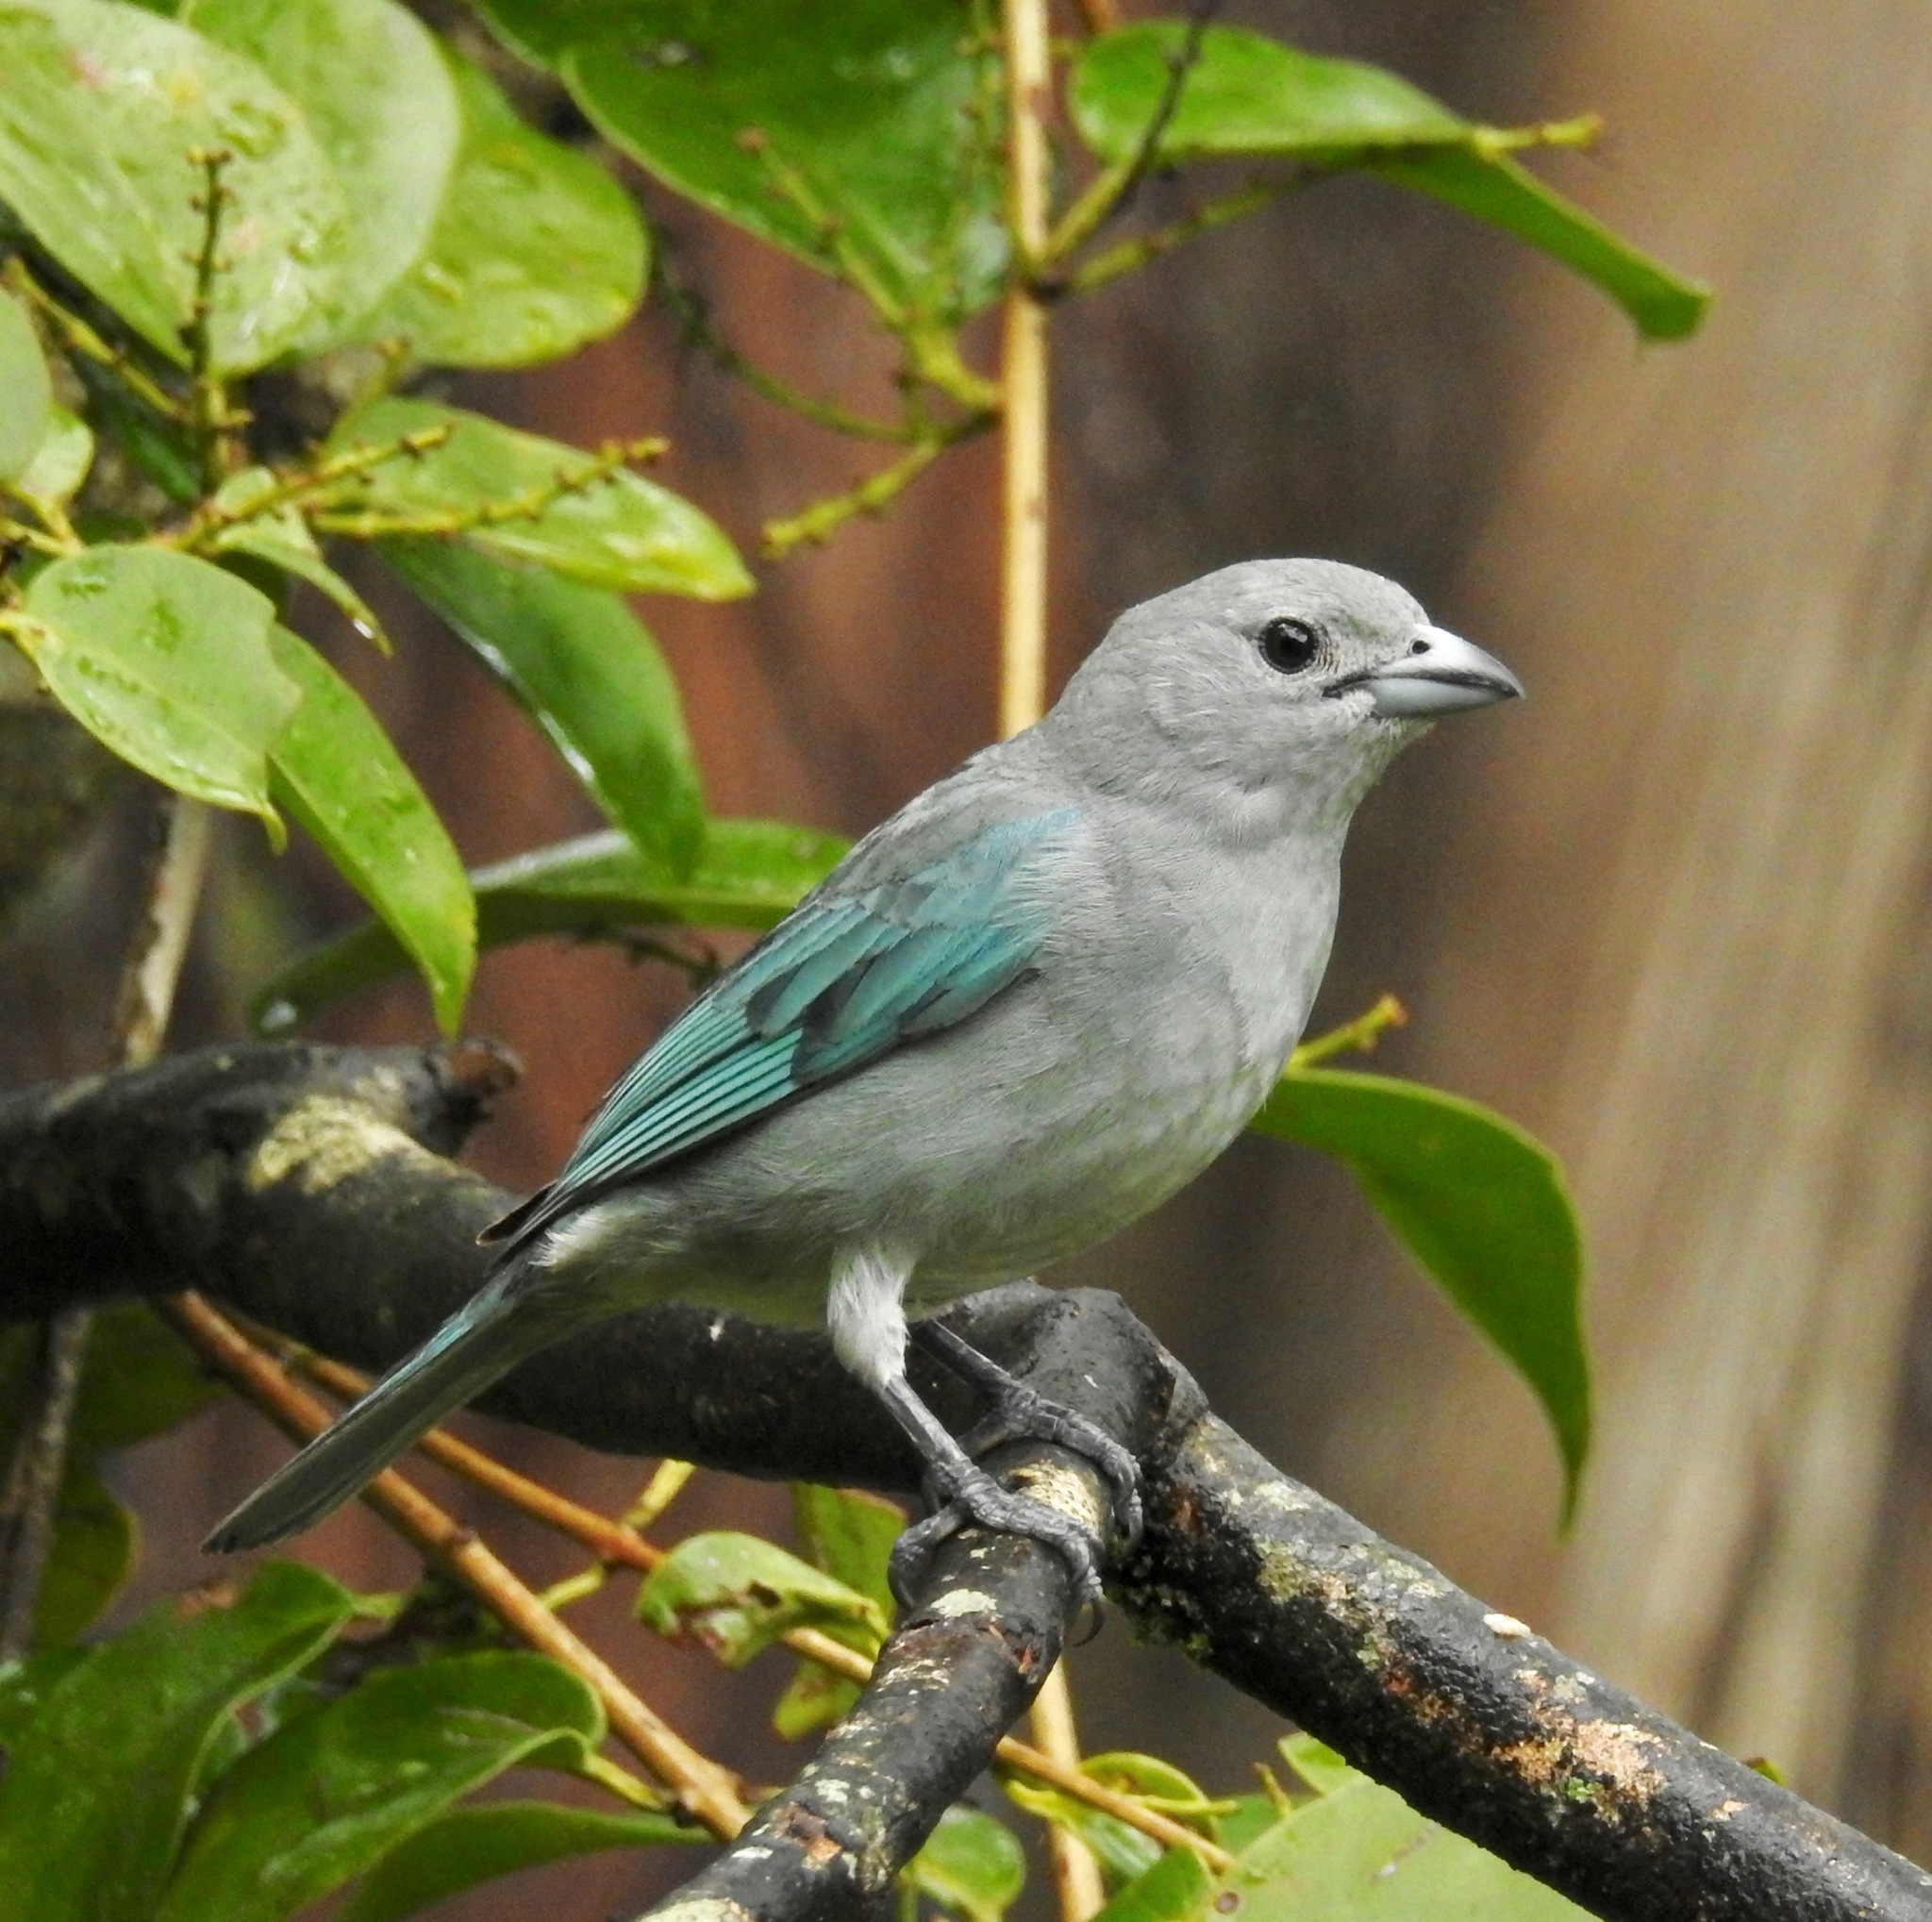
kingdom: Animalia
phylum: Chordata
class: Aves
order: Passeriformes
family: Thraupidae
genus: Thraupis
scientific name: Thraupis sayaca
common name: Sayaca tanager
